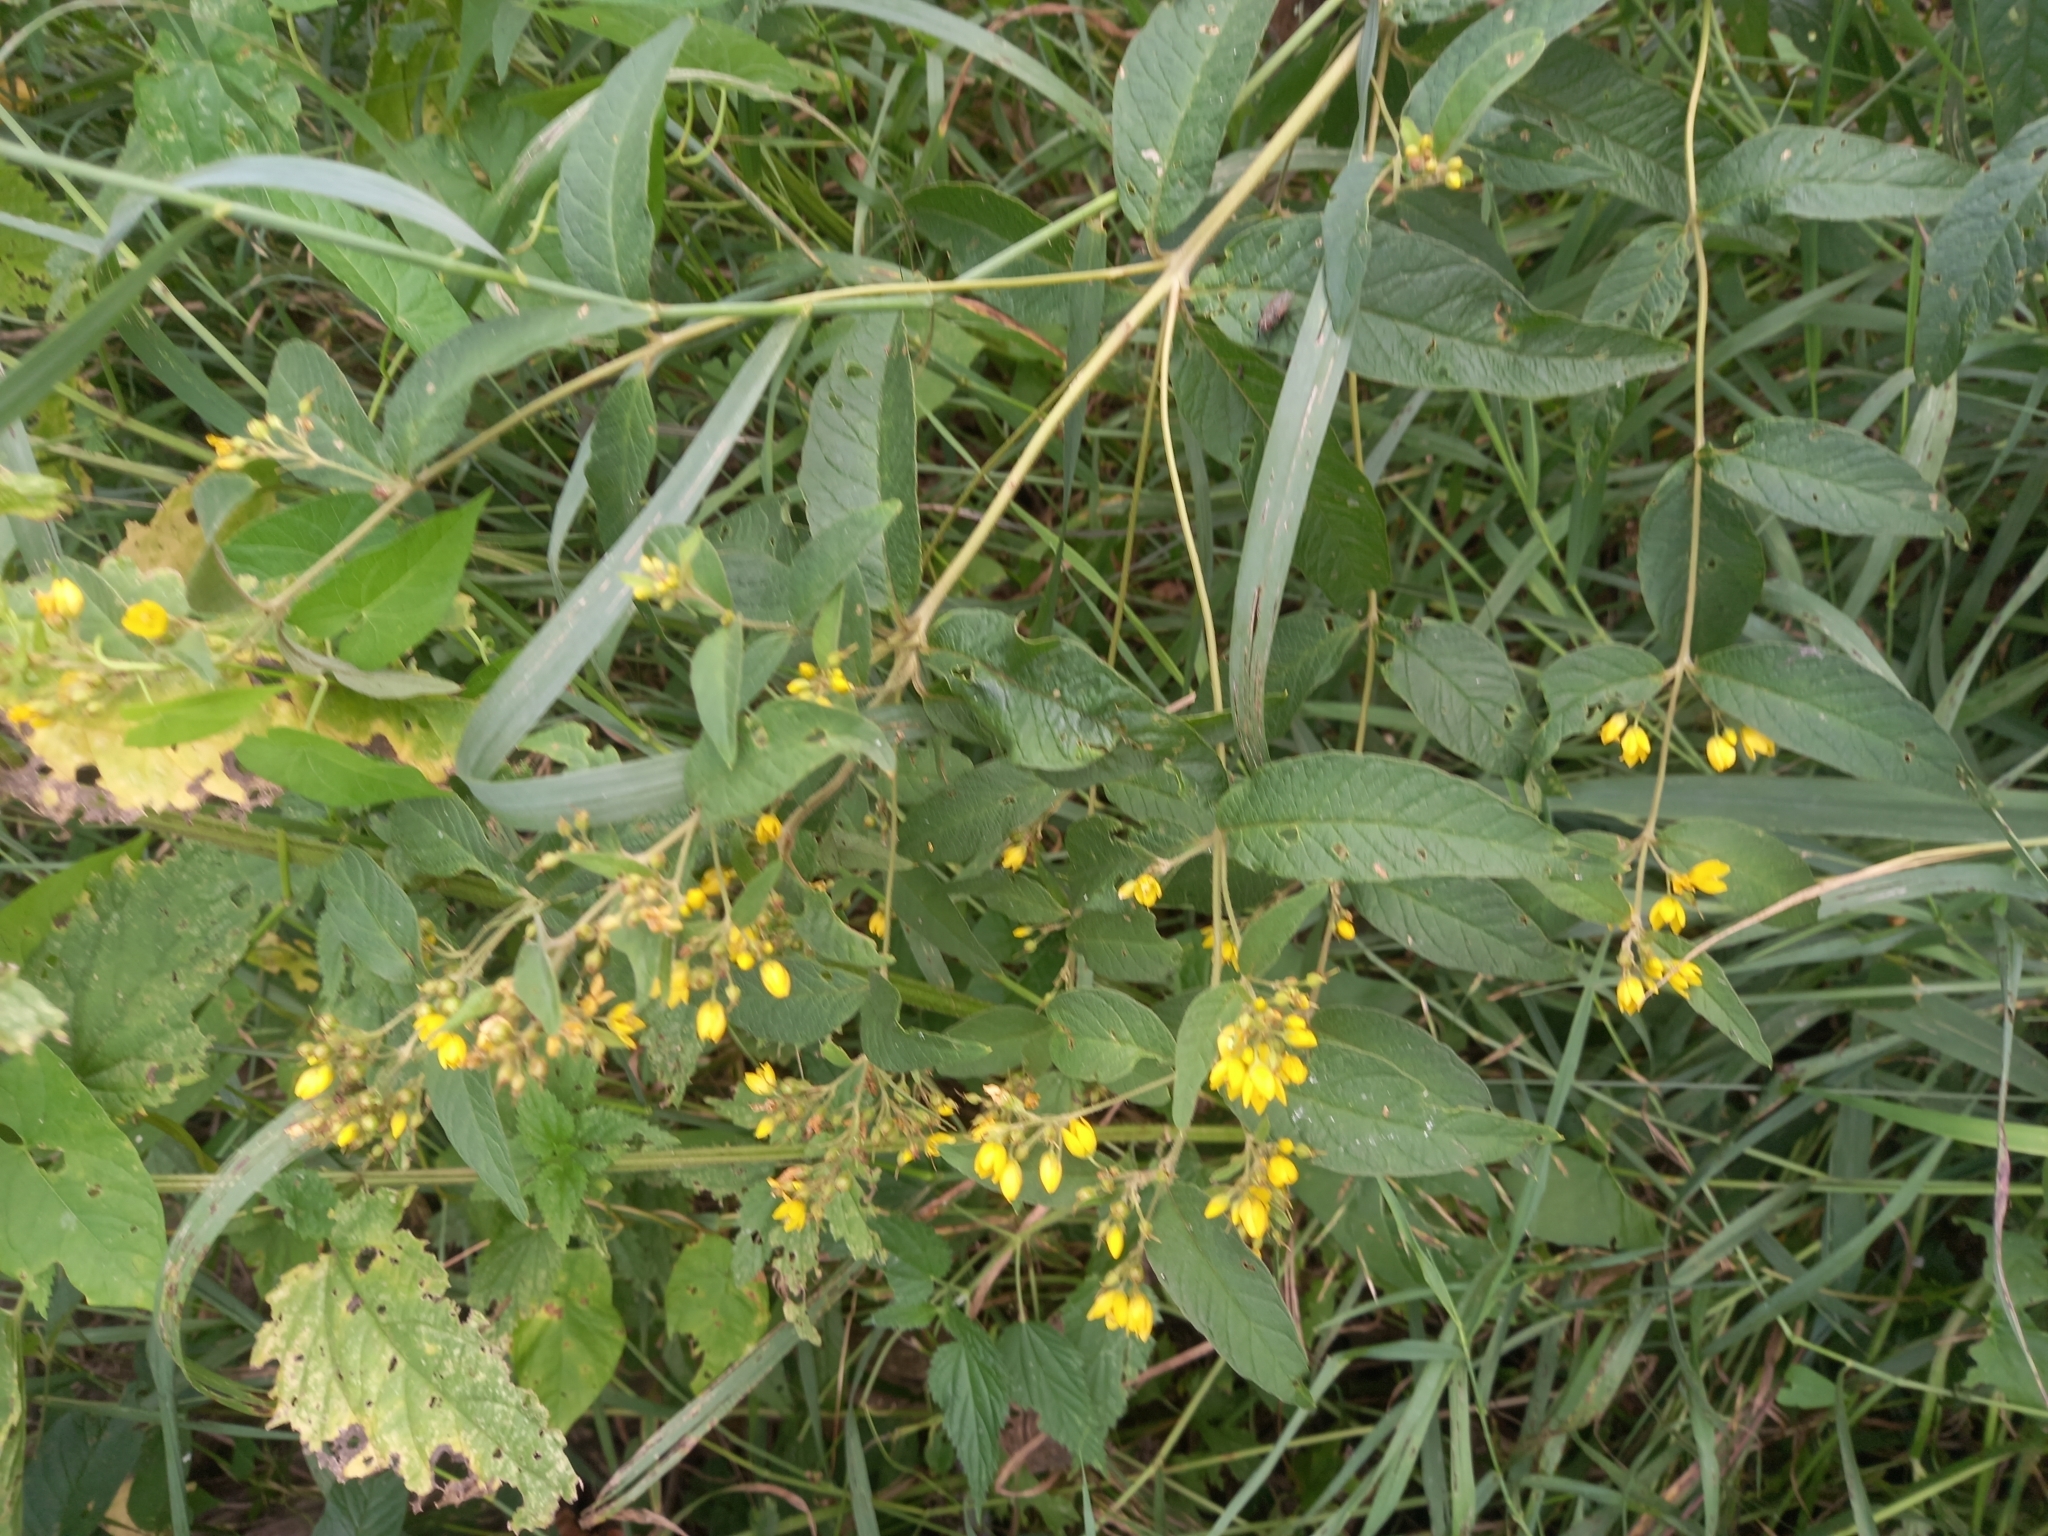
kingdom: Plantae
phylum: Tracheophyta
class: Magnoliopsida
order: Ericales
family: Primulaceae
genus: Lysimachia
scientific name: Lysimachia vulgaris
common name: Yellow loosestrife
